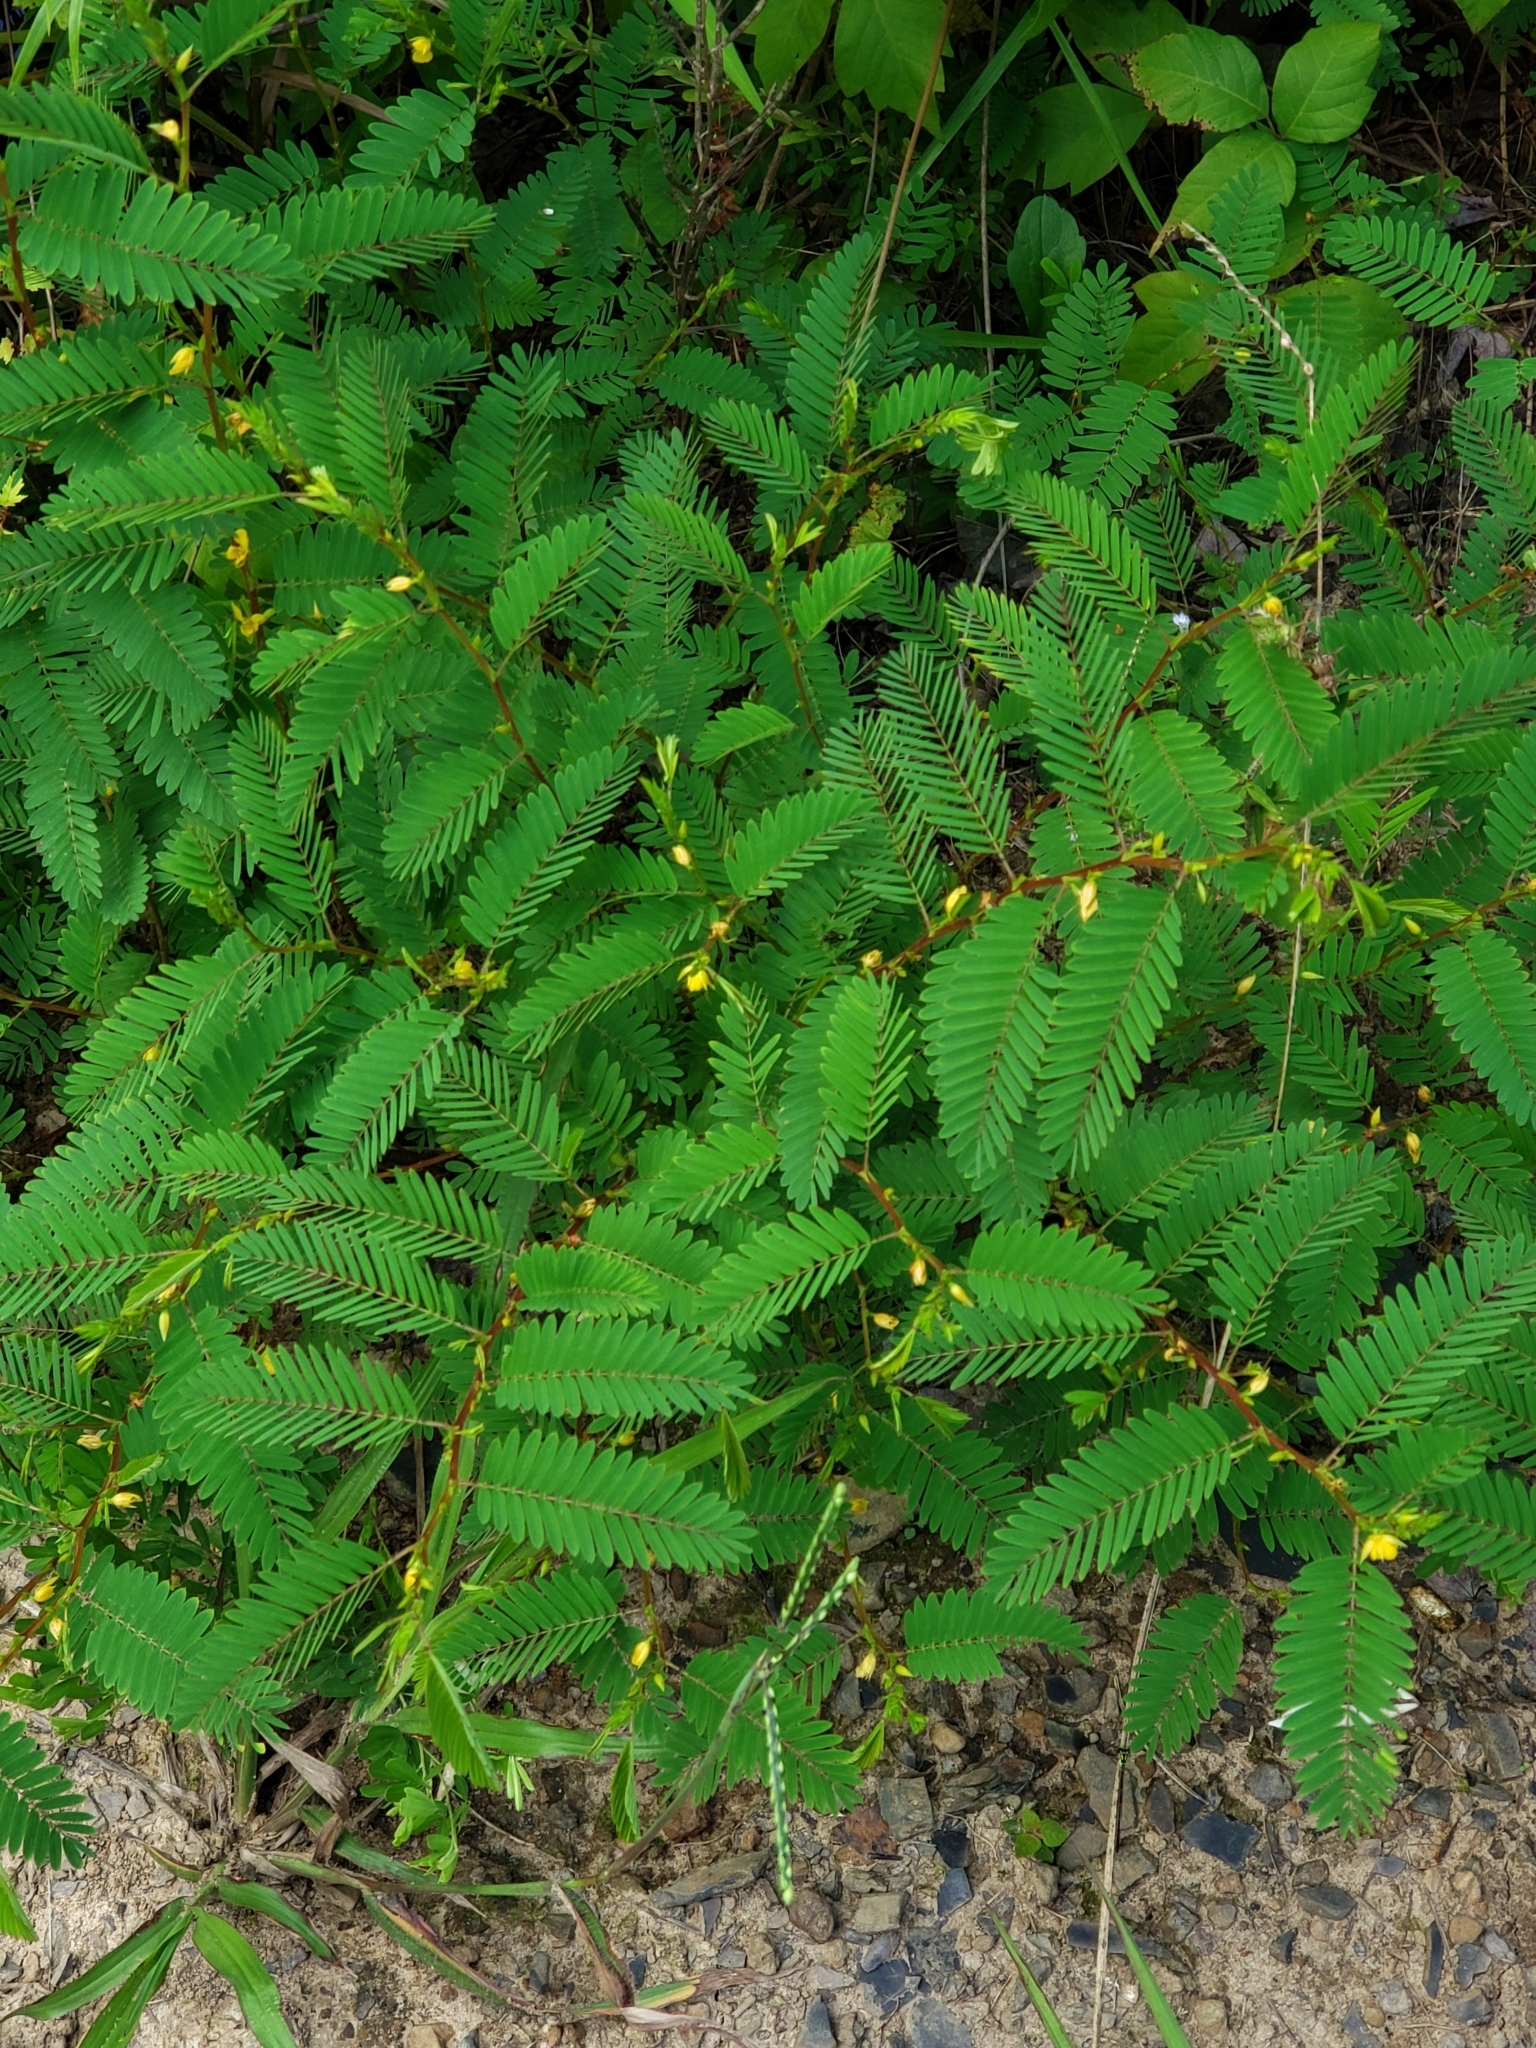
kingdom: Plantae
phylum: Tracheophyta
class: Magnoliopsida
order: Fabales
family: Fabaceae
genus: Chamaecrista
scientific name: Chamaecrista nictitans
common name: Sensitive cassia
